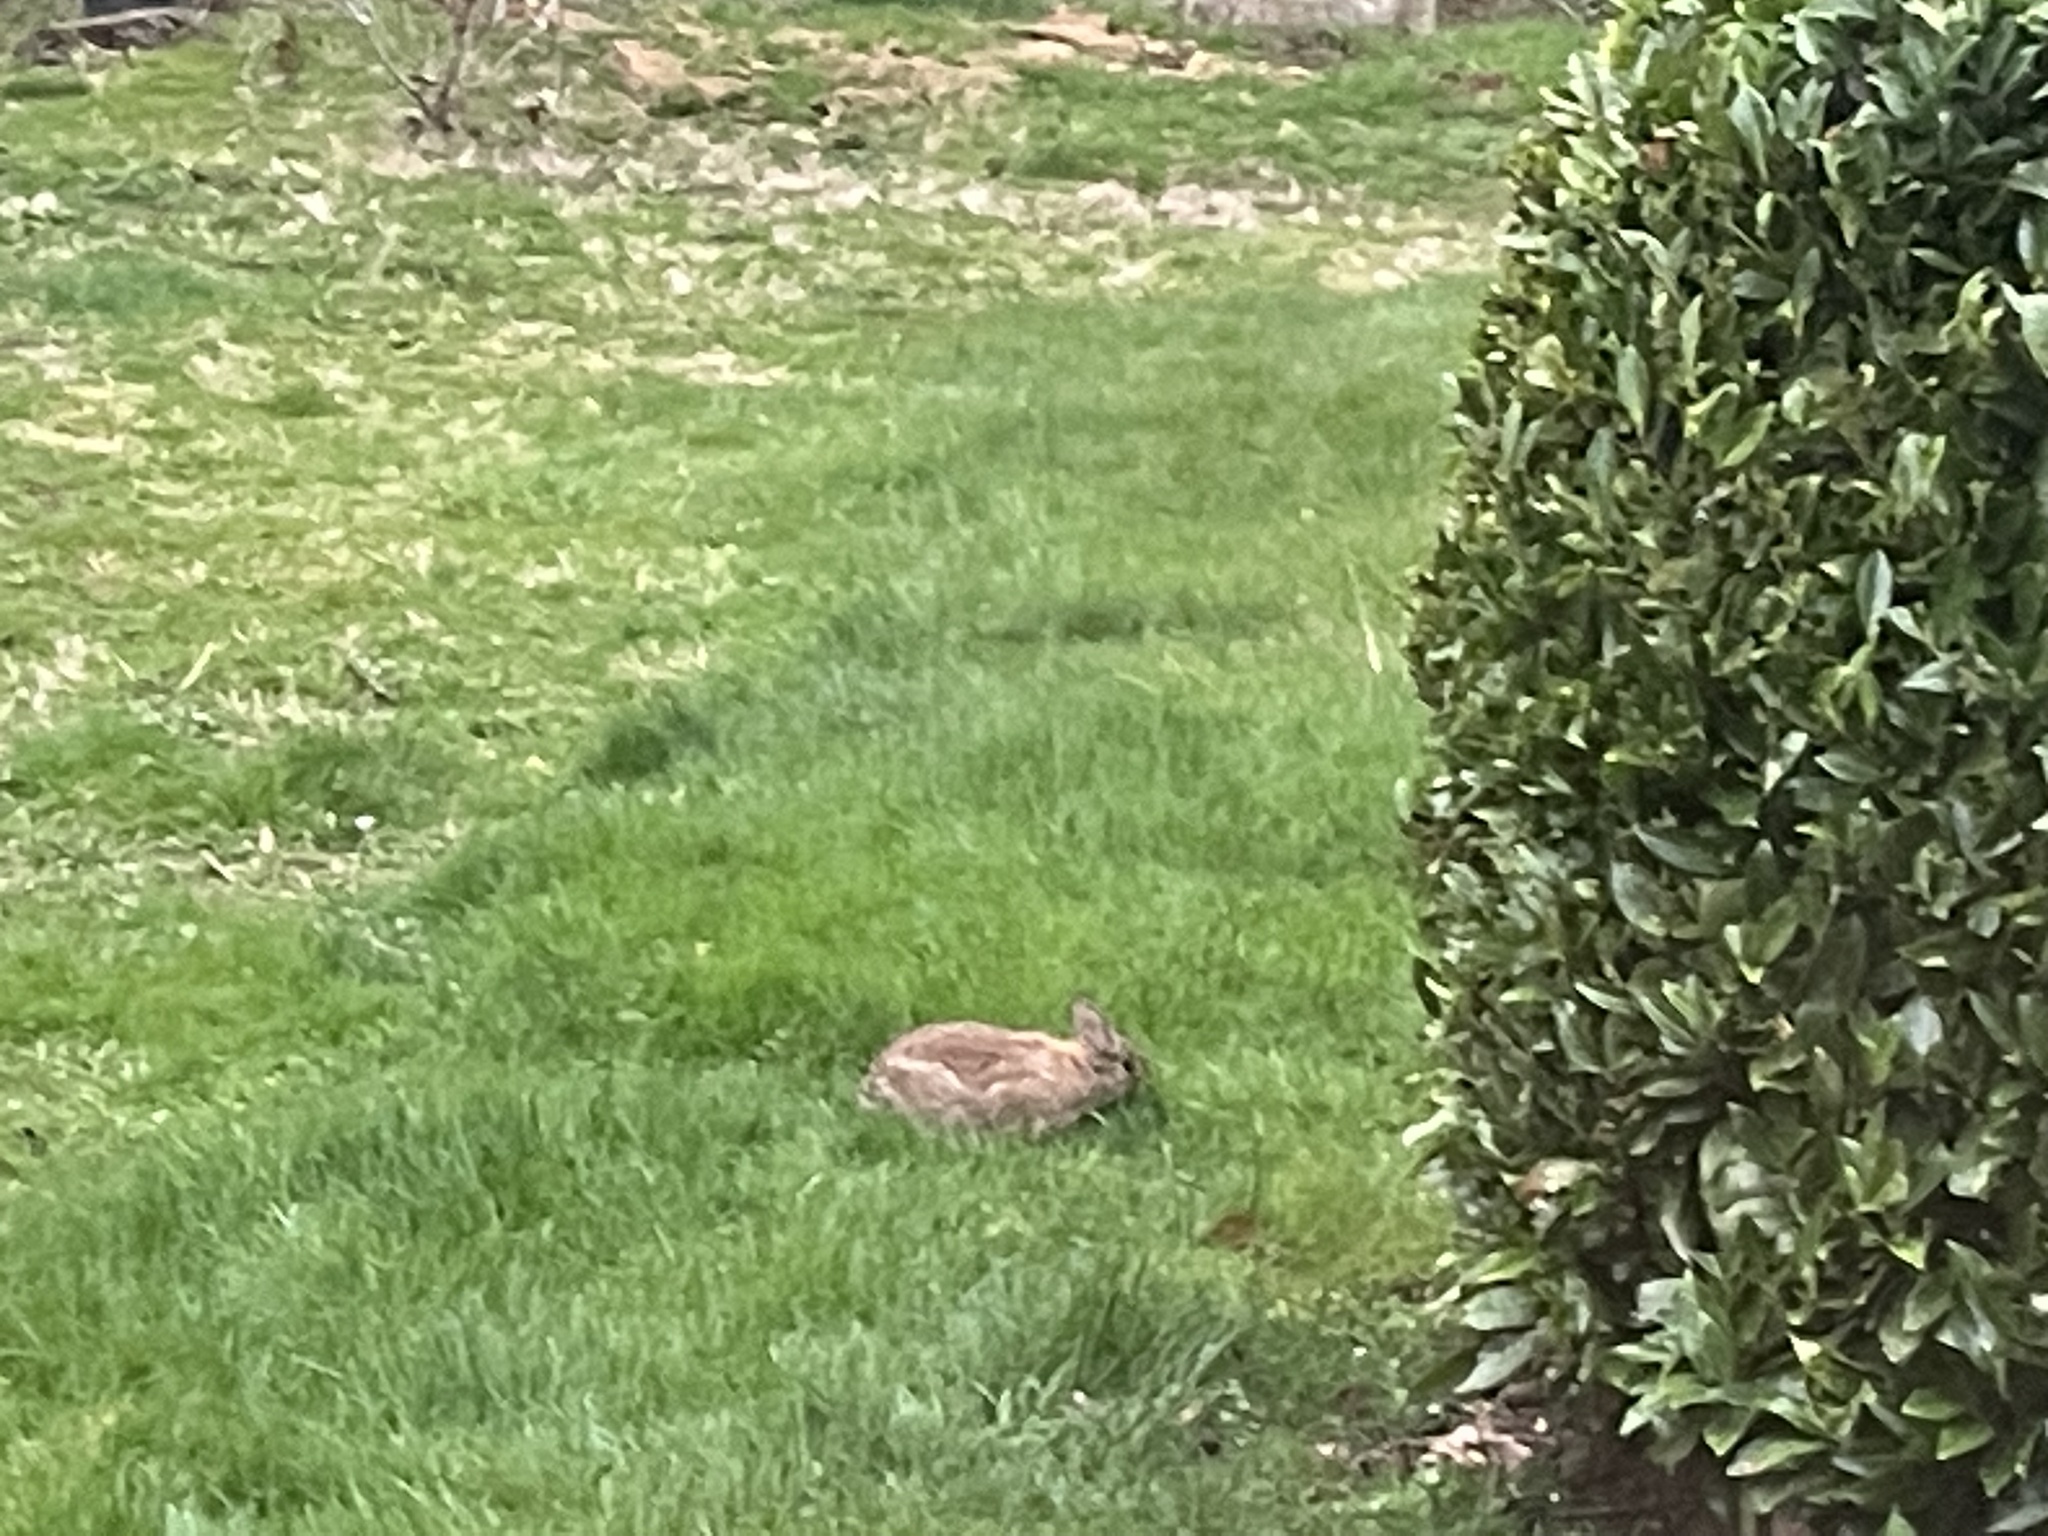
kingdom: Animalia
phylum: Chordata
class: Mammalia
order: Lagomorpha
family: Leporidae
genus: Sylvilagus
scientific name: Sylvilagus floridanus
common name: Eastern cottontail
